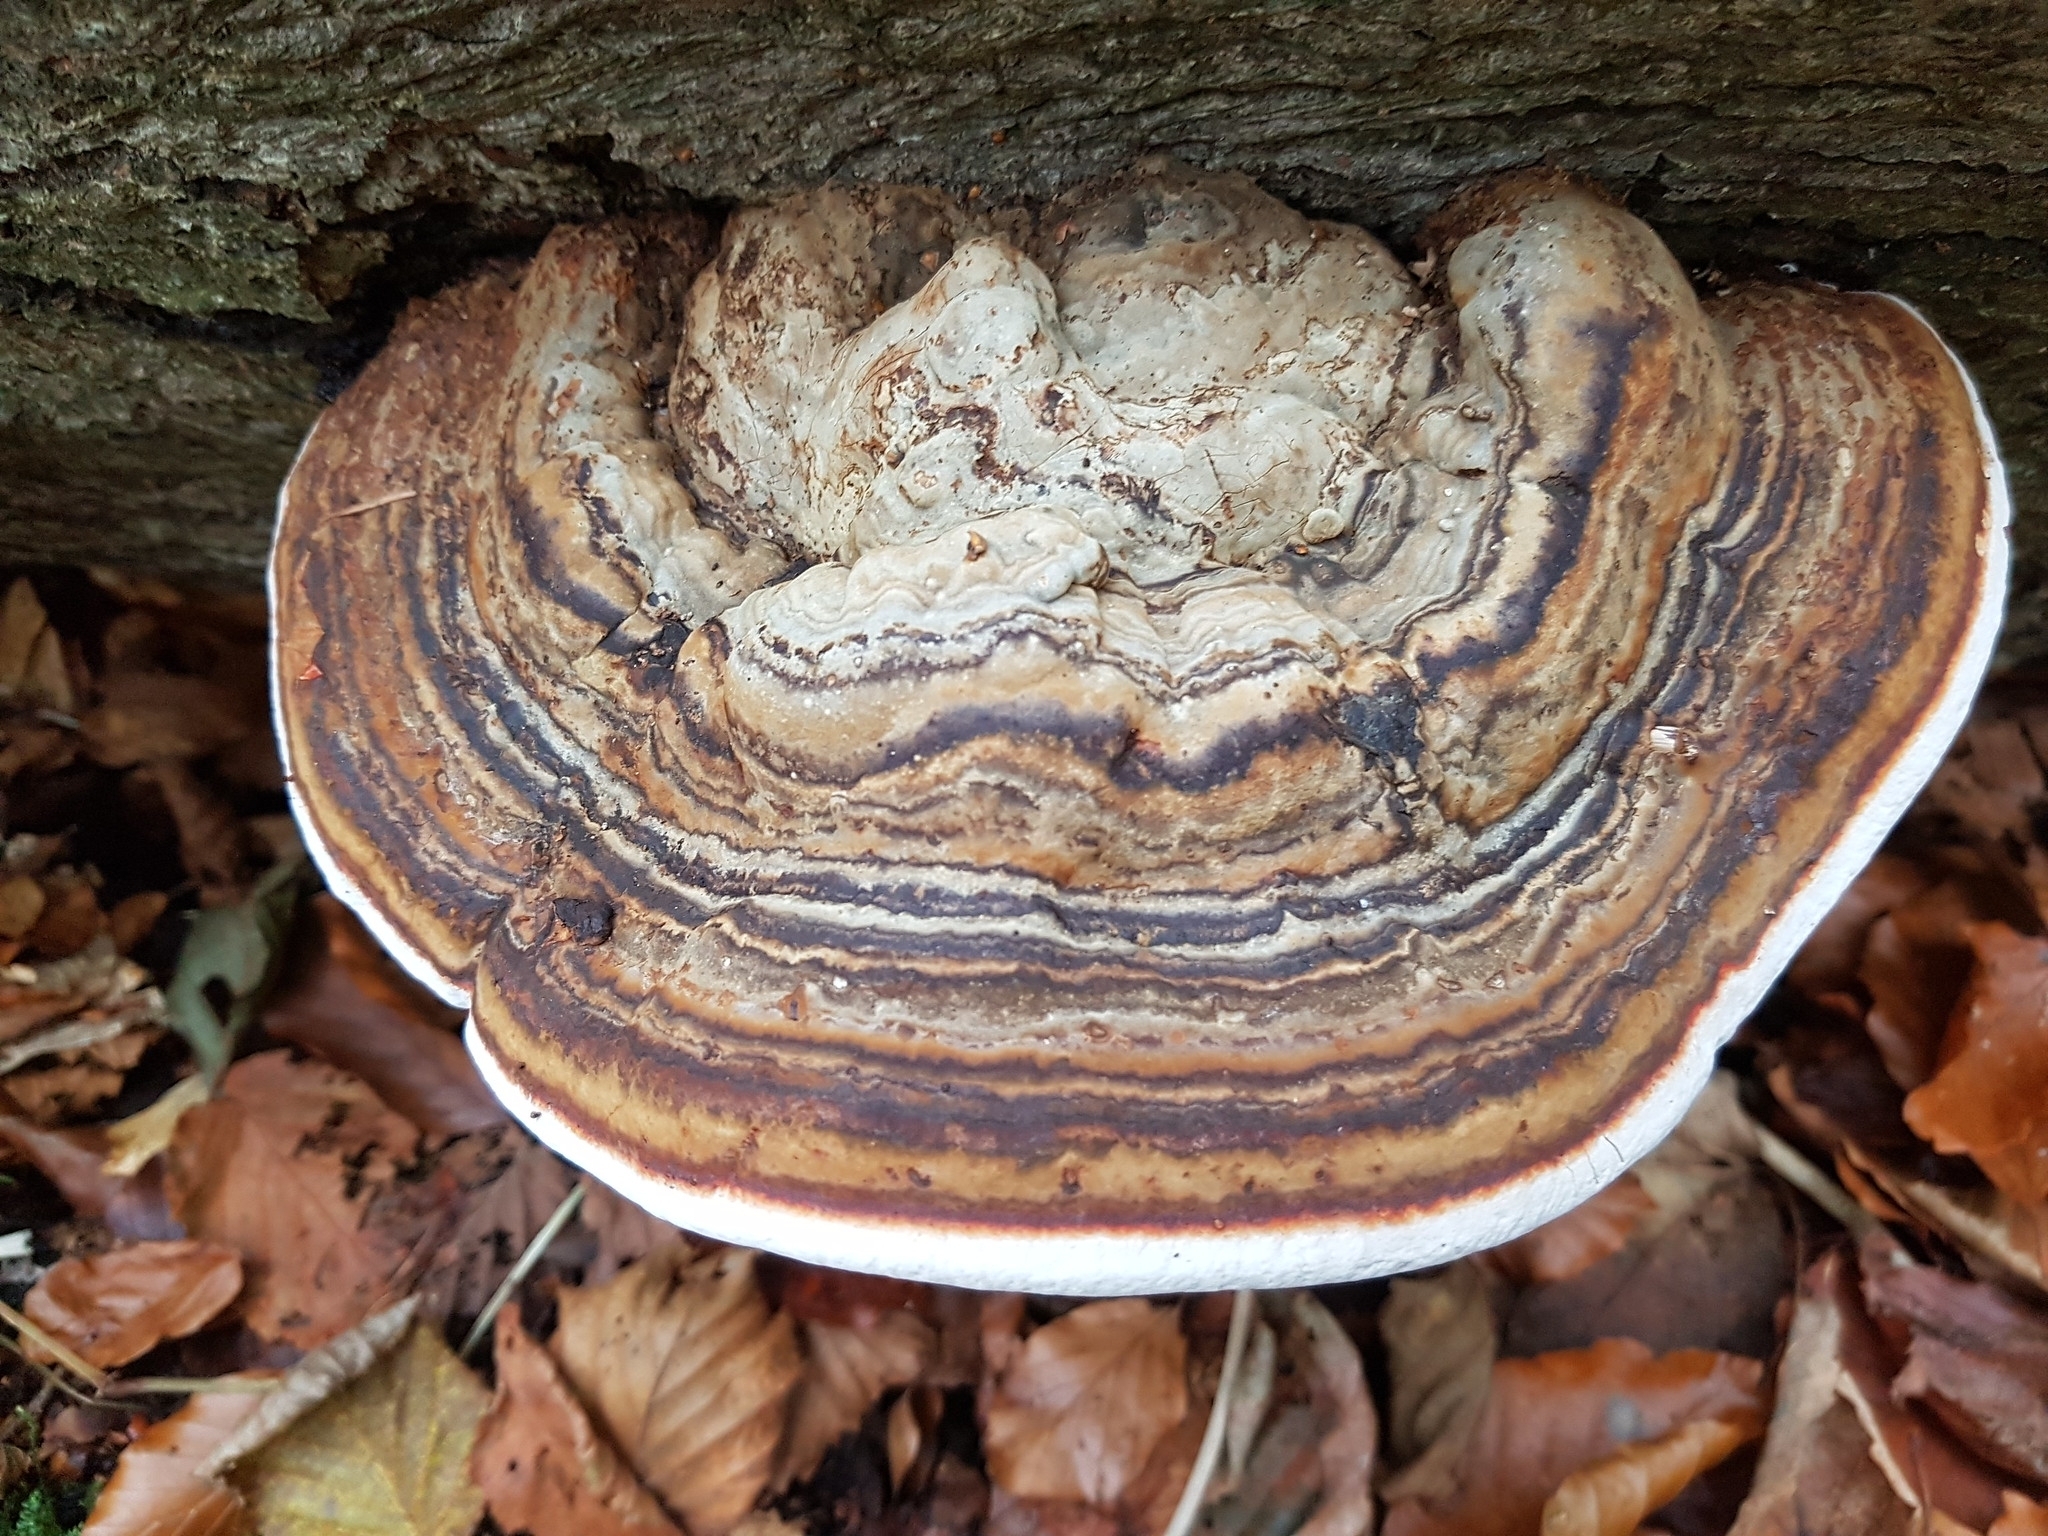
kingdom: Fungi
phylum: Basidiomycota
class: Agaricomycetes
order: Polyporales
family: Polyporaceae
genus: Fomes
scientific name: Fomes fomentarius
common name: Hoof fungus
